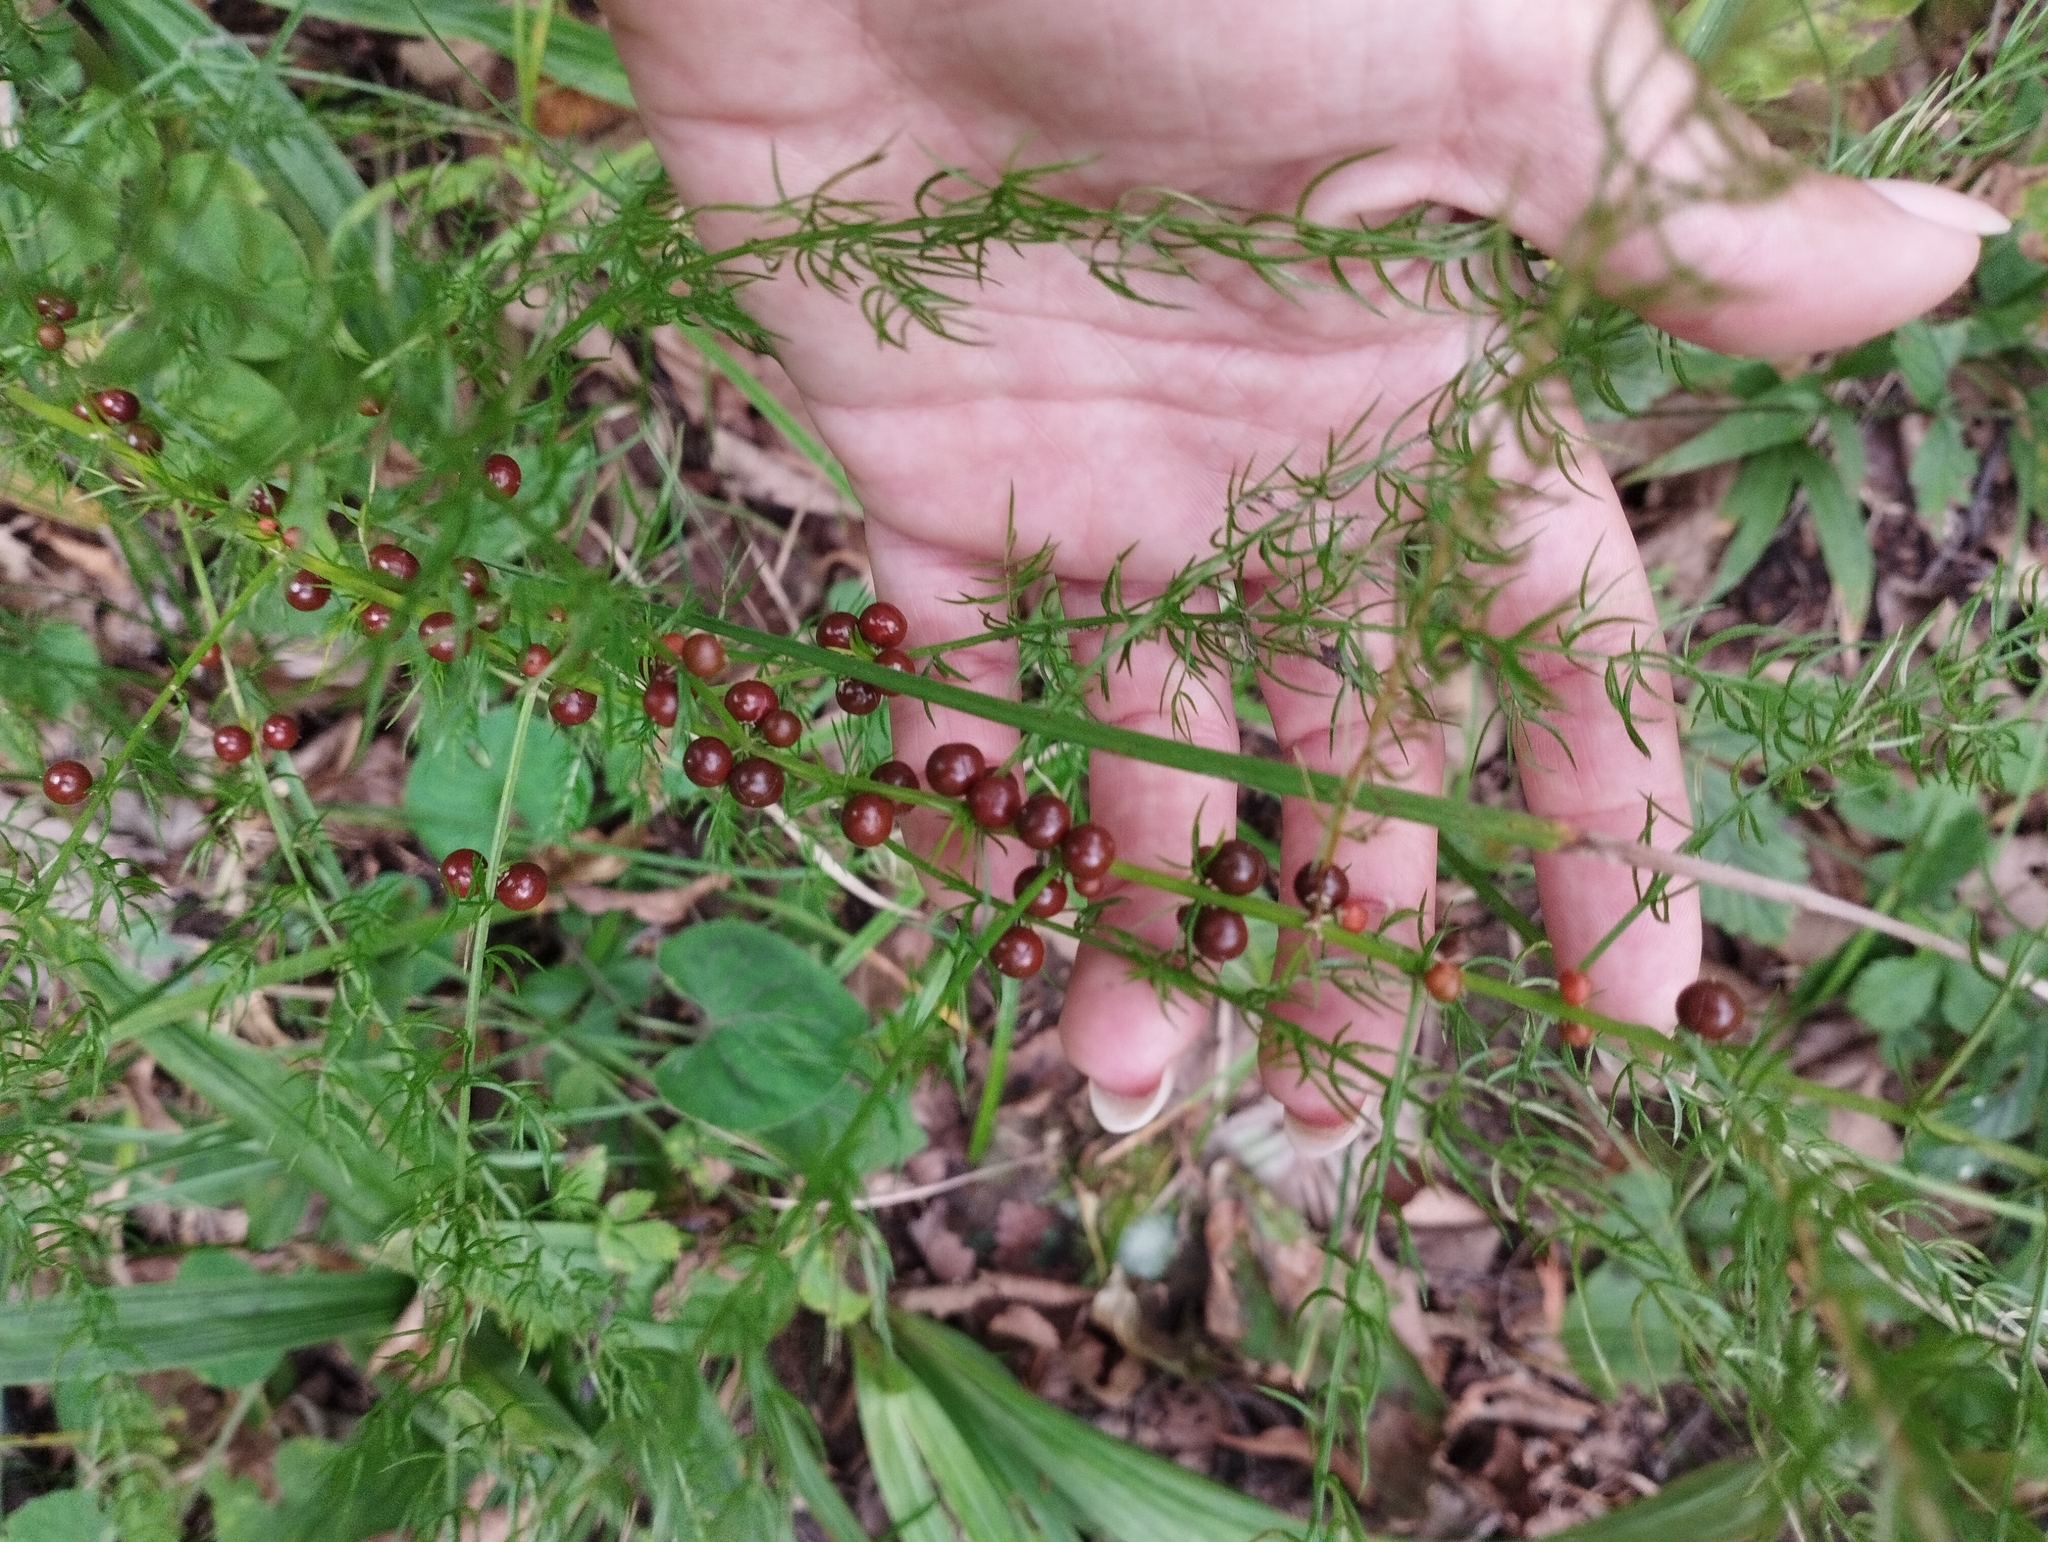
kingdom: Plantae
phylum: Tracheophyta
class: Liliopsida
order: Asparagales
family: Asparagaceae
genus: Asparagus
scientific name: Asparagus schoberioides
